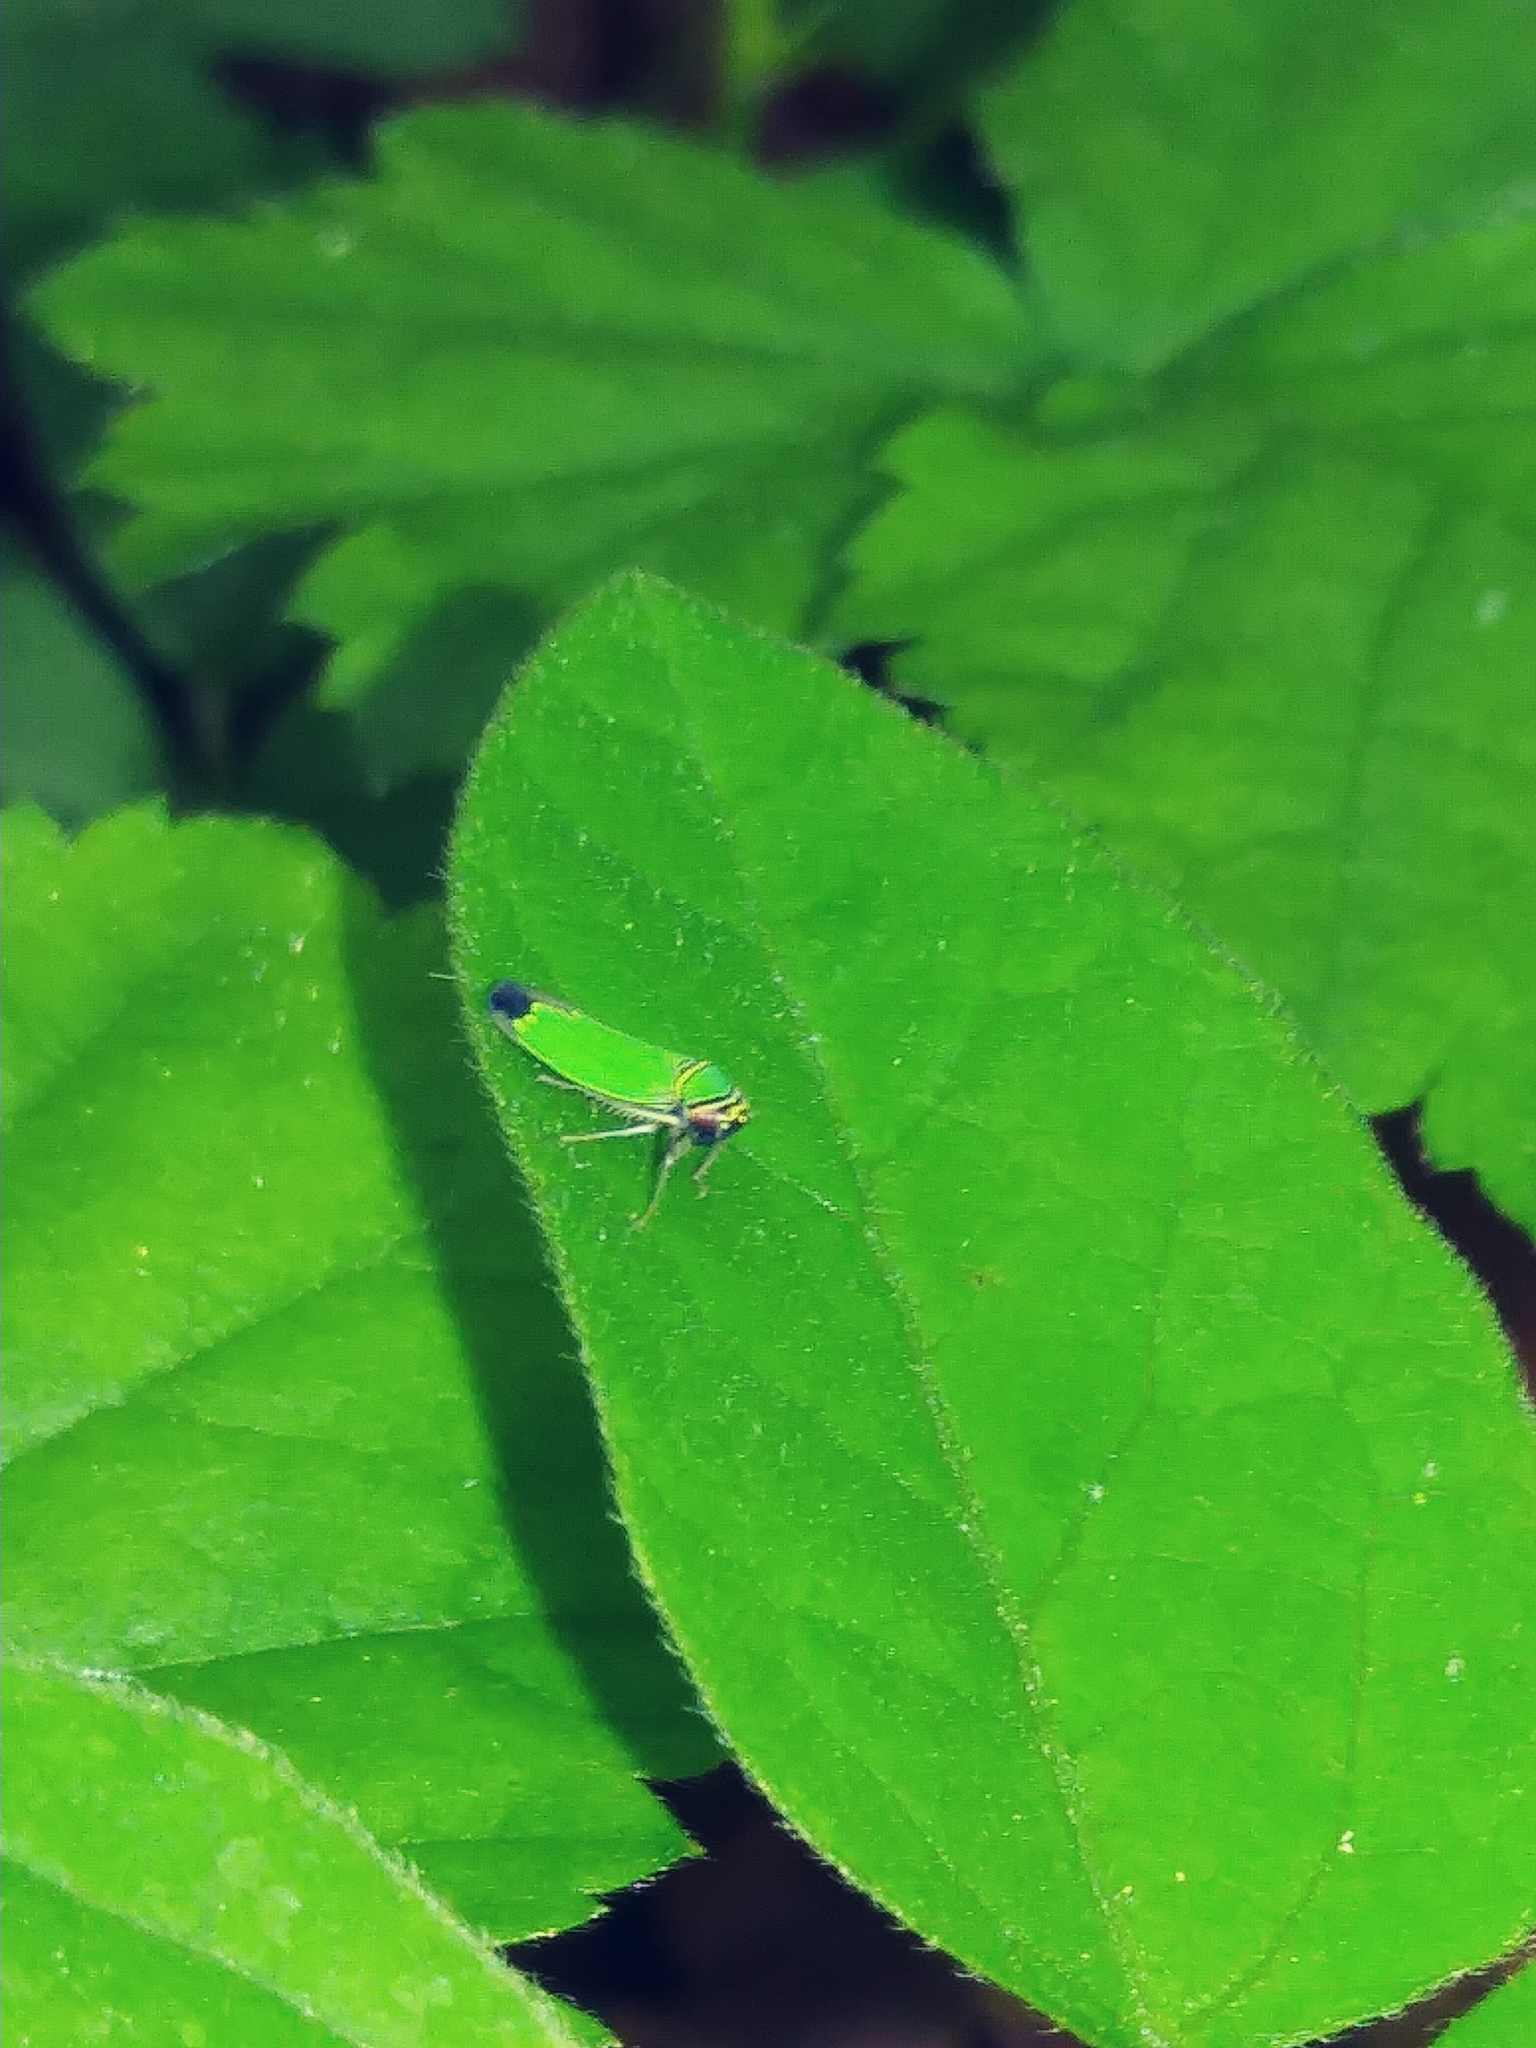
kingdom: Animalia
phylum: Arthropoda
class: Insecta
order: Hemiptera
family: Cicadellidae
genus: Tylozygus
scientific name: Tylozygus geometricus
